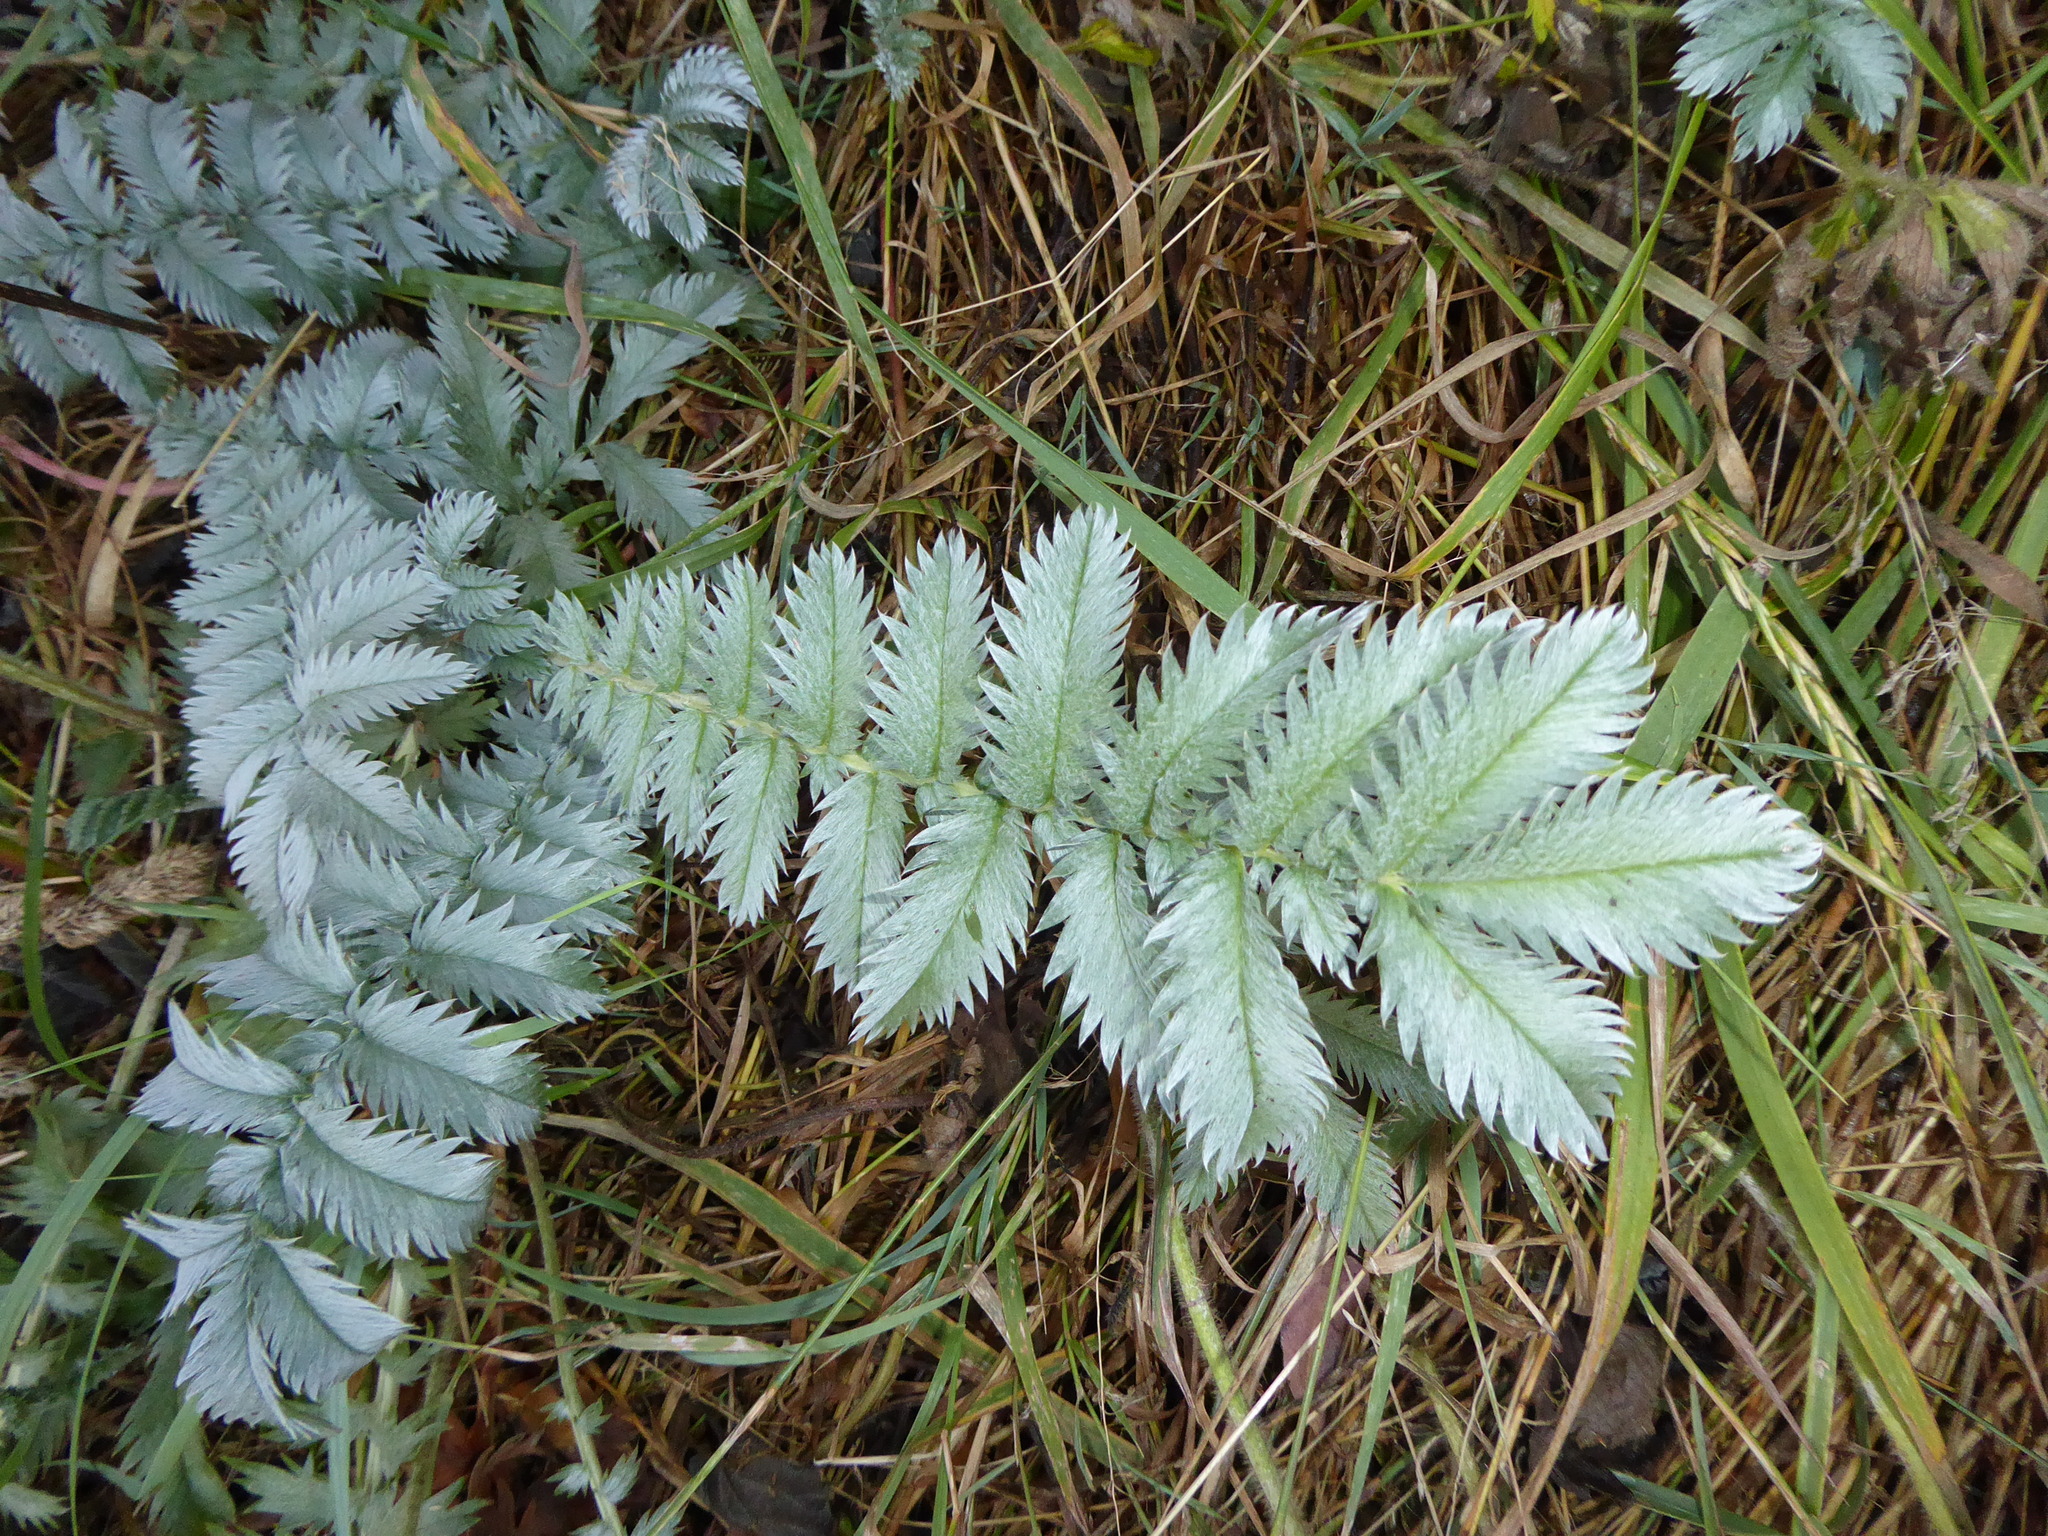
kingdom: Plantae
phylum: Tracheophyta
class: Magnoliopsida
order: Rosales
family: Rosaceae
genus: Argentina
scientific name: Argentina anserina
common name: Common silverweed
